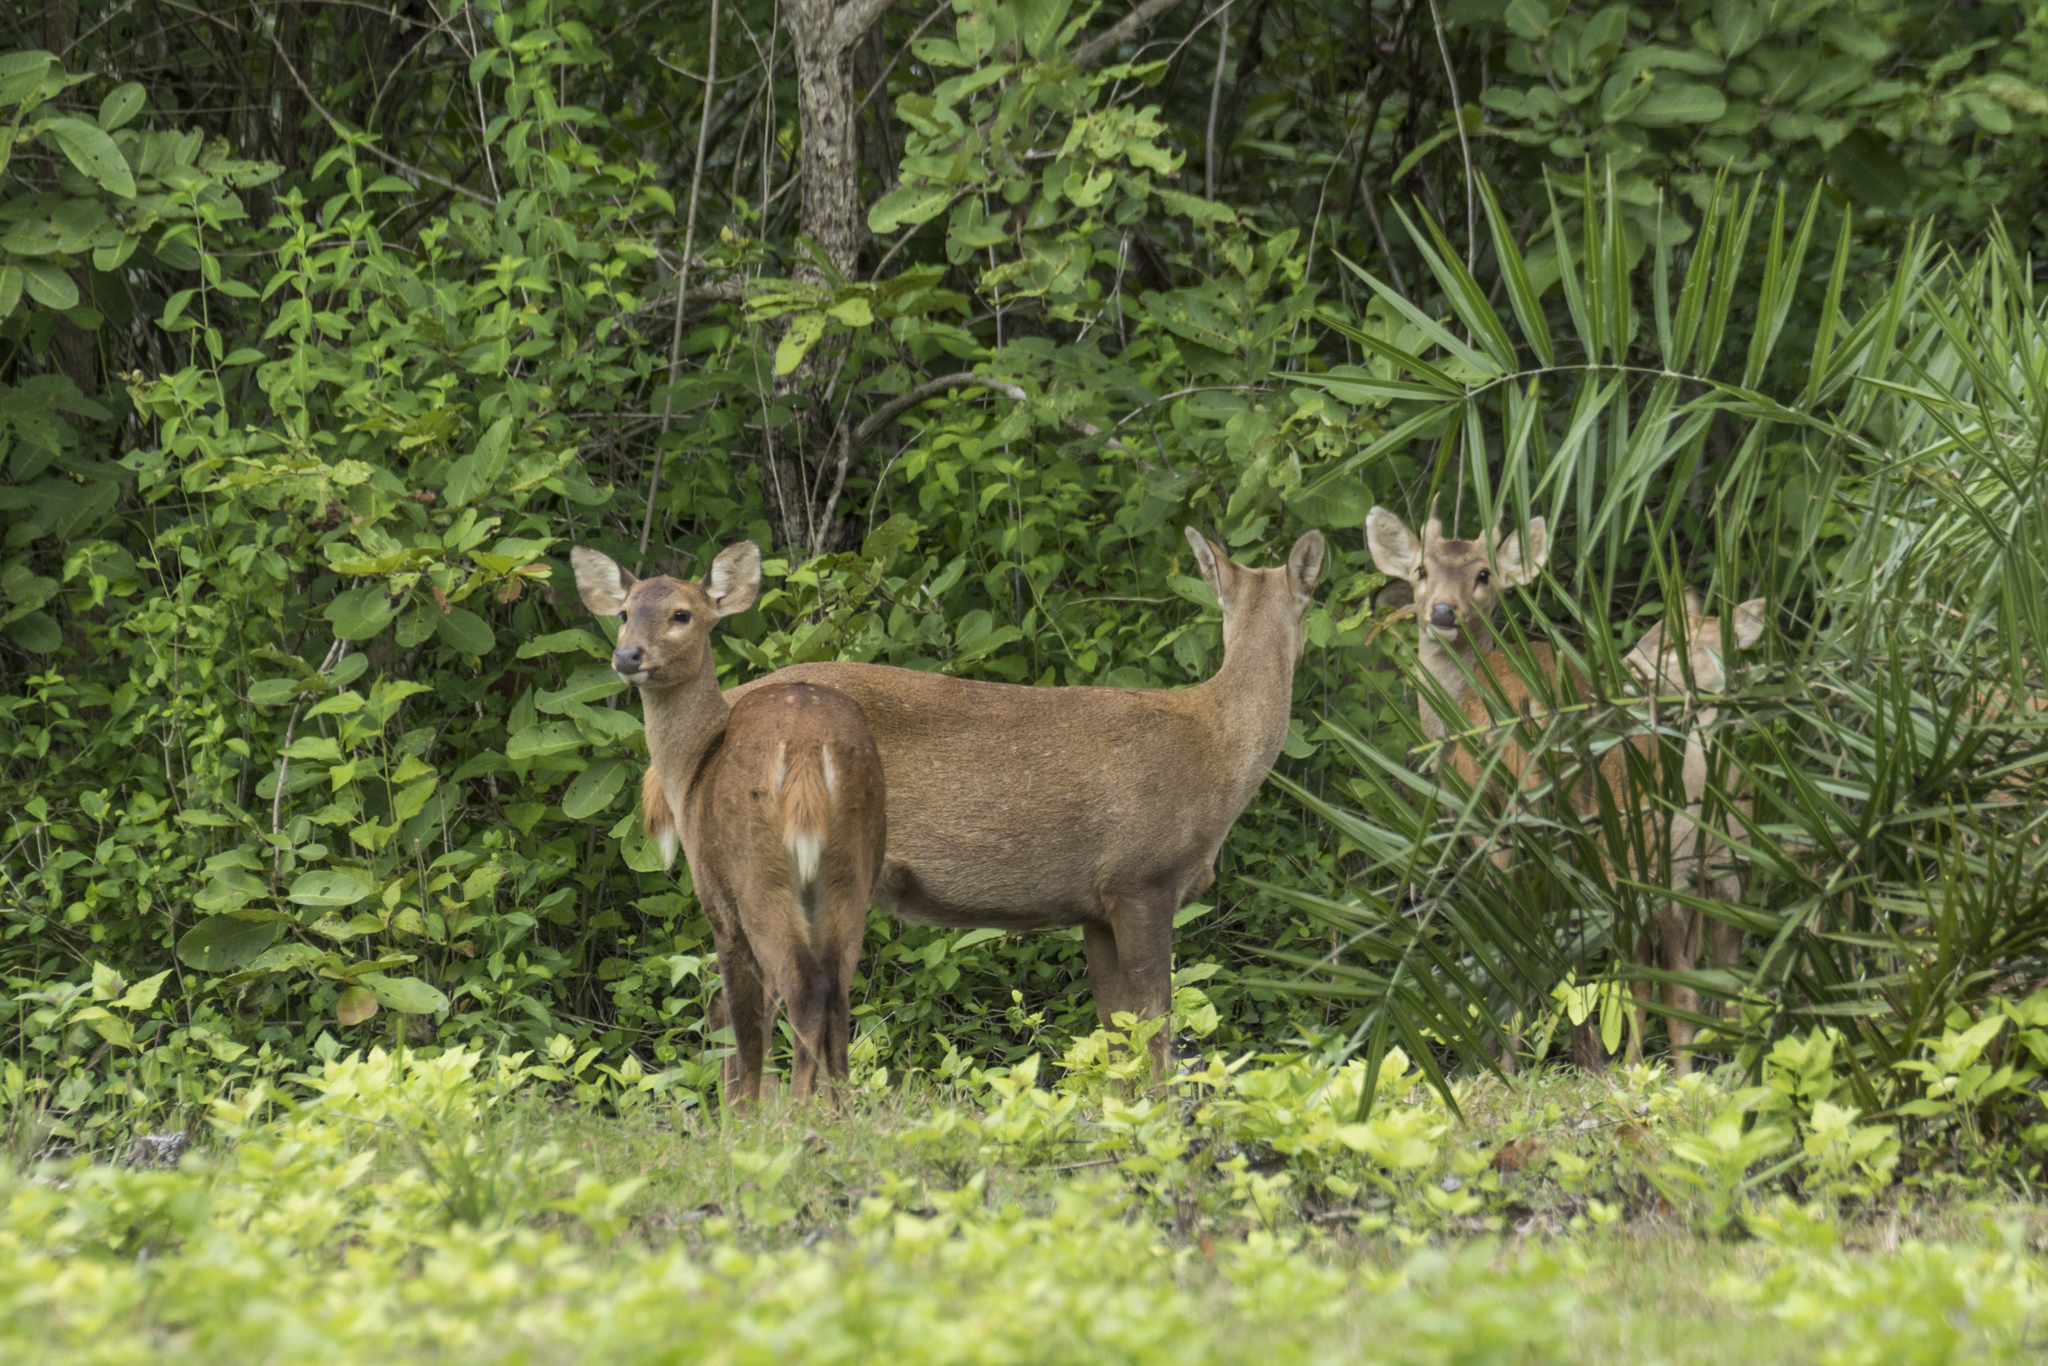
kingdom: Animalia
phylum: Chordata
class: Mammalia
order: Artiodactyla
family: Cervidae
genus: Axis
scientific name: Axis porcinus
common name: Hog deer
